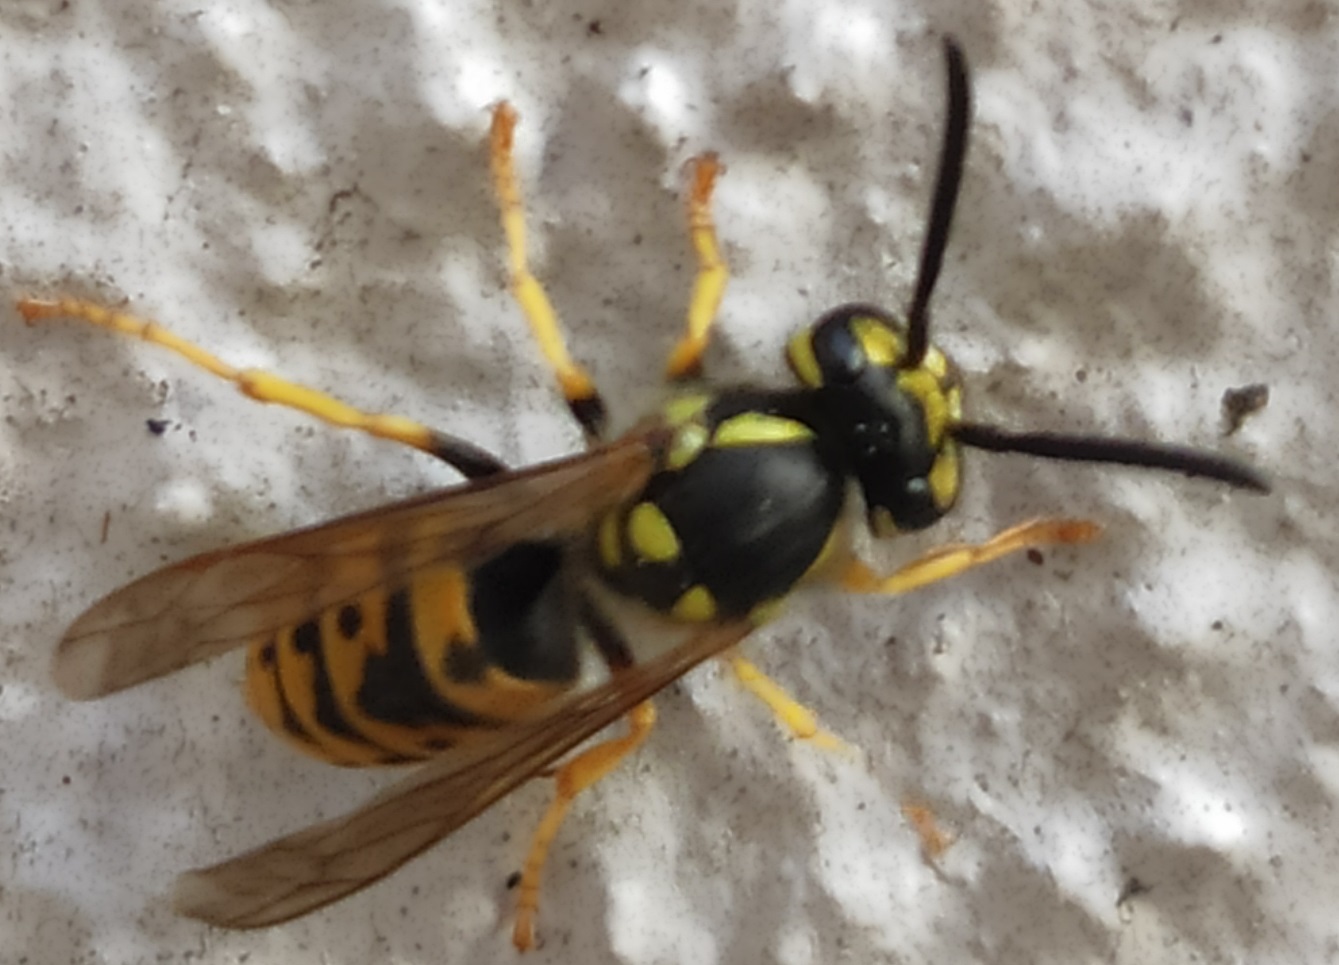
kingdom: Animalia
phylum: Arthropoda
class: Insecta
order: Hymenoptera
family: Vespidae
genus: Vespula
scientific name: Vespula vulgaris
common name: Common wasp
